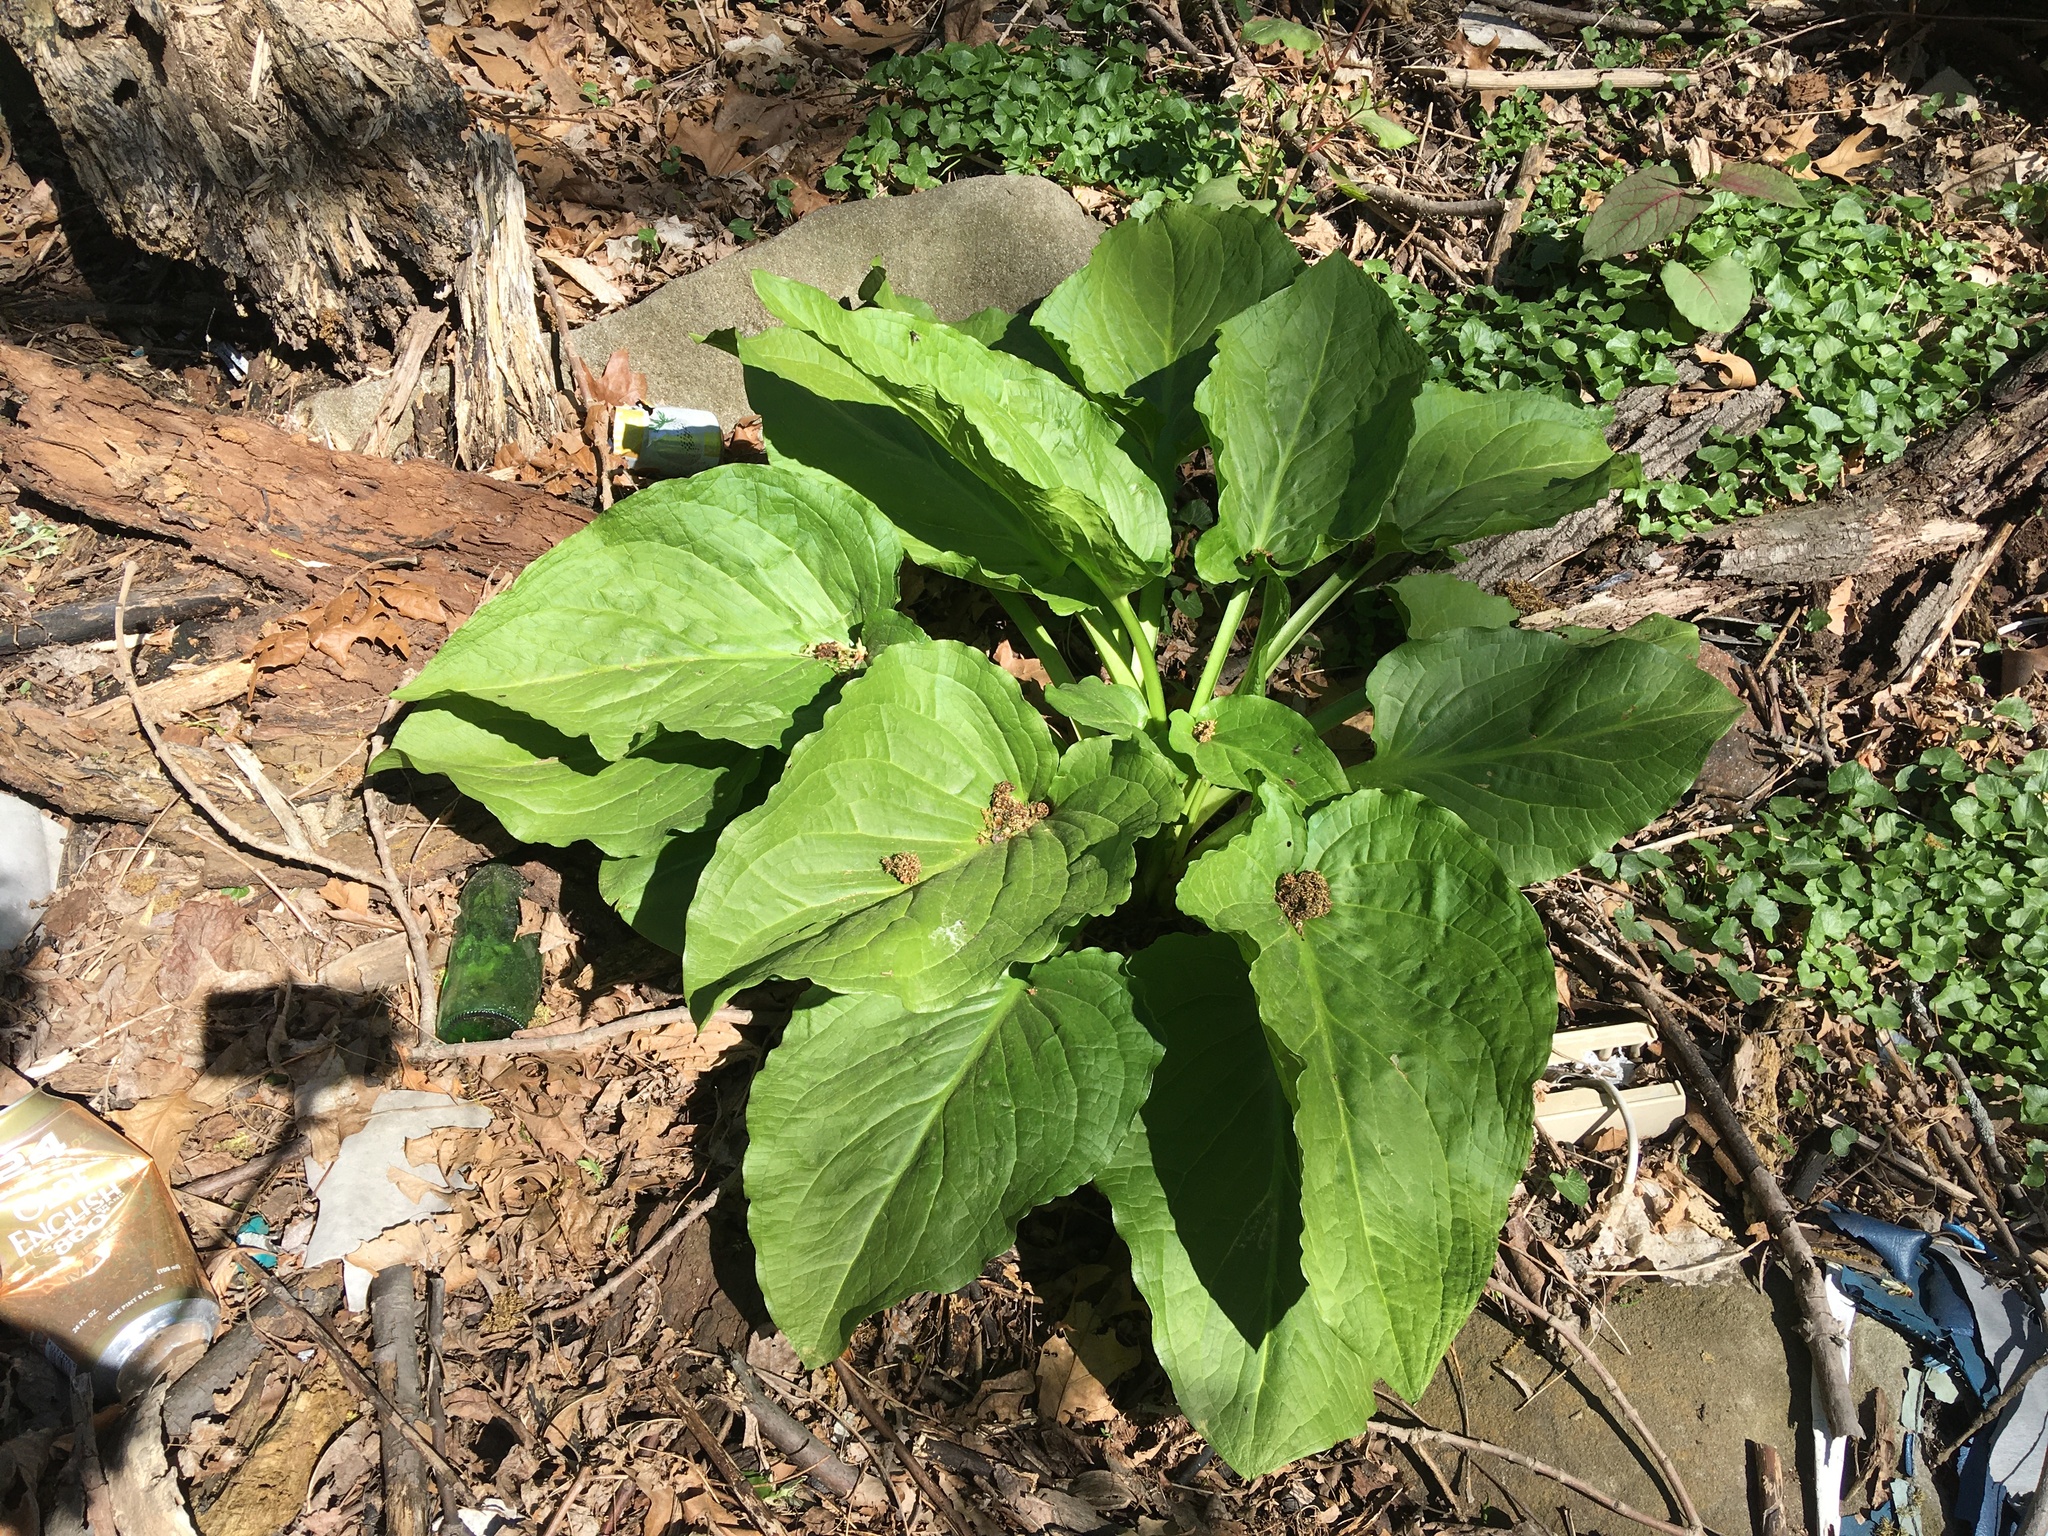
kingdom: Plantae
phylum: Tracheophyta
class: Liliopsida
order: Alismatales
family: Araceae
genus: Symplocarpus
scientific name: Symplocarpus foetidus
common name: Eastern skunk cabbage
